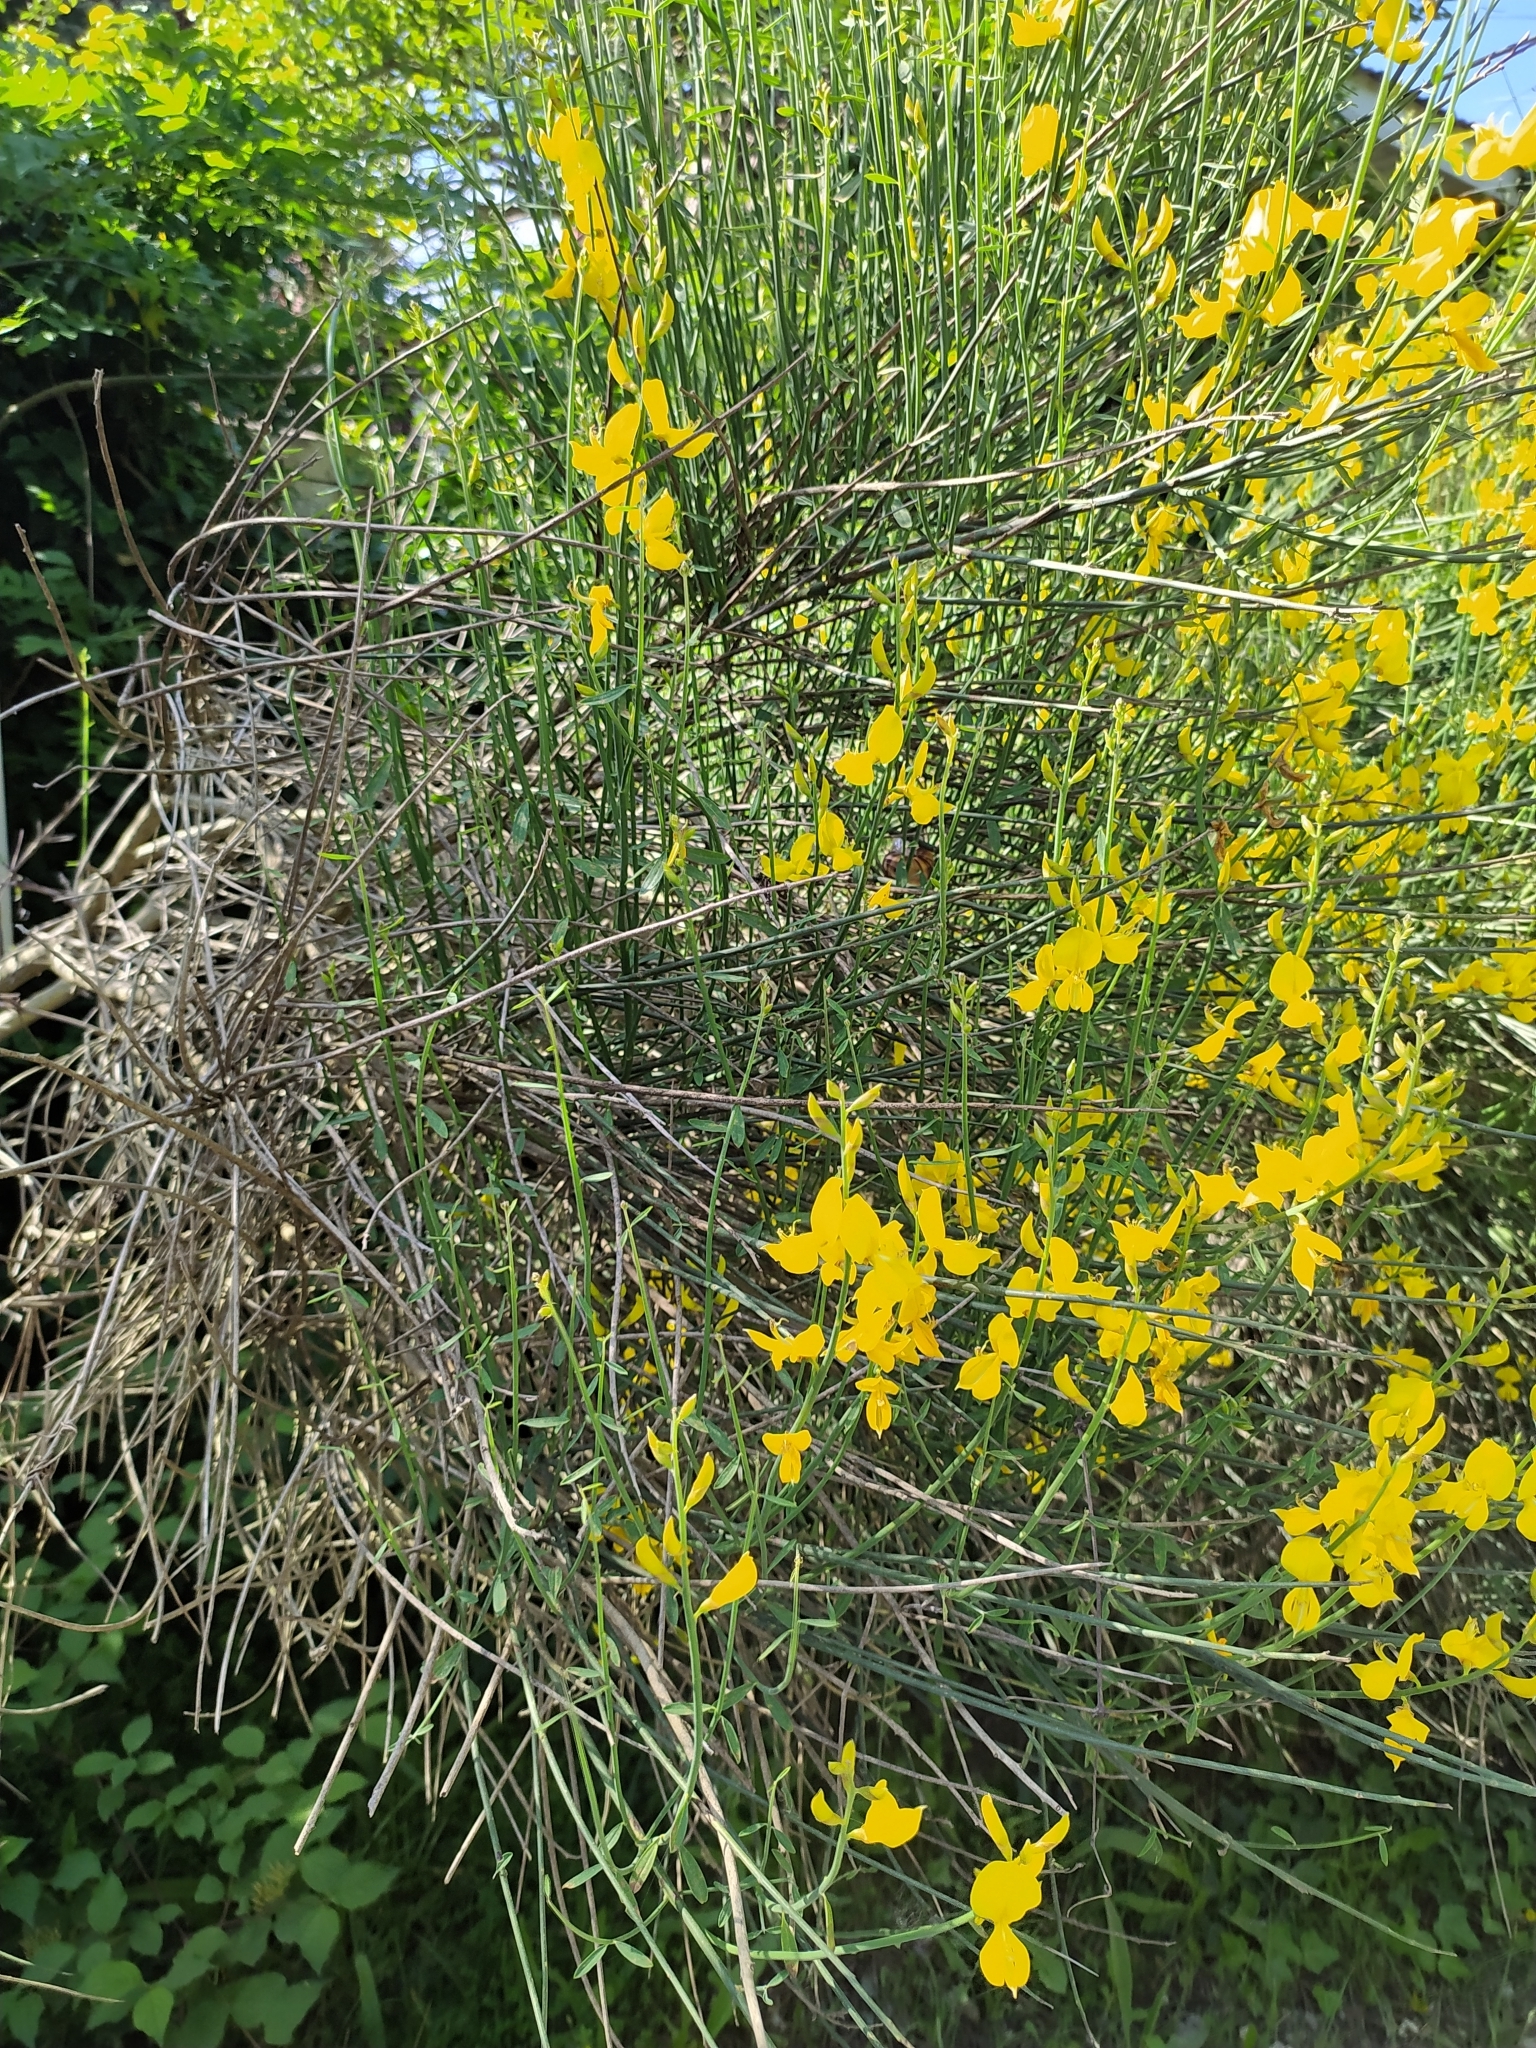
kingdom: Plantae
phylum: Tracheophyta
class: Magnoliopsida
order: Fabales
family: Fabaceae
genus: Spartium
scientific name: Spartium junceum
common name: Spanish broom
